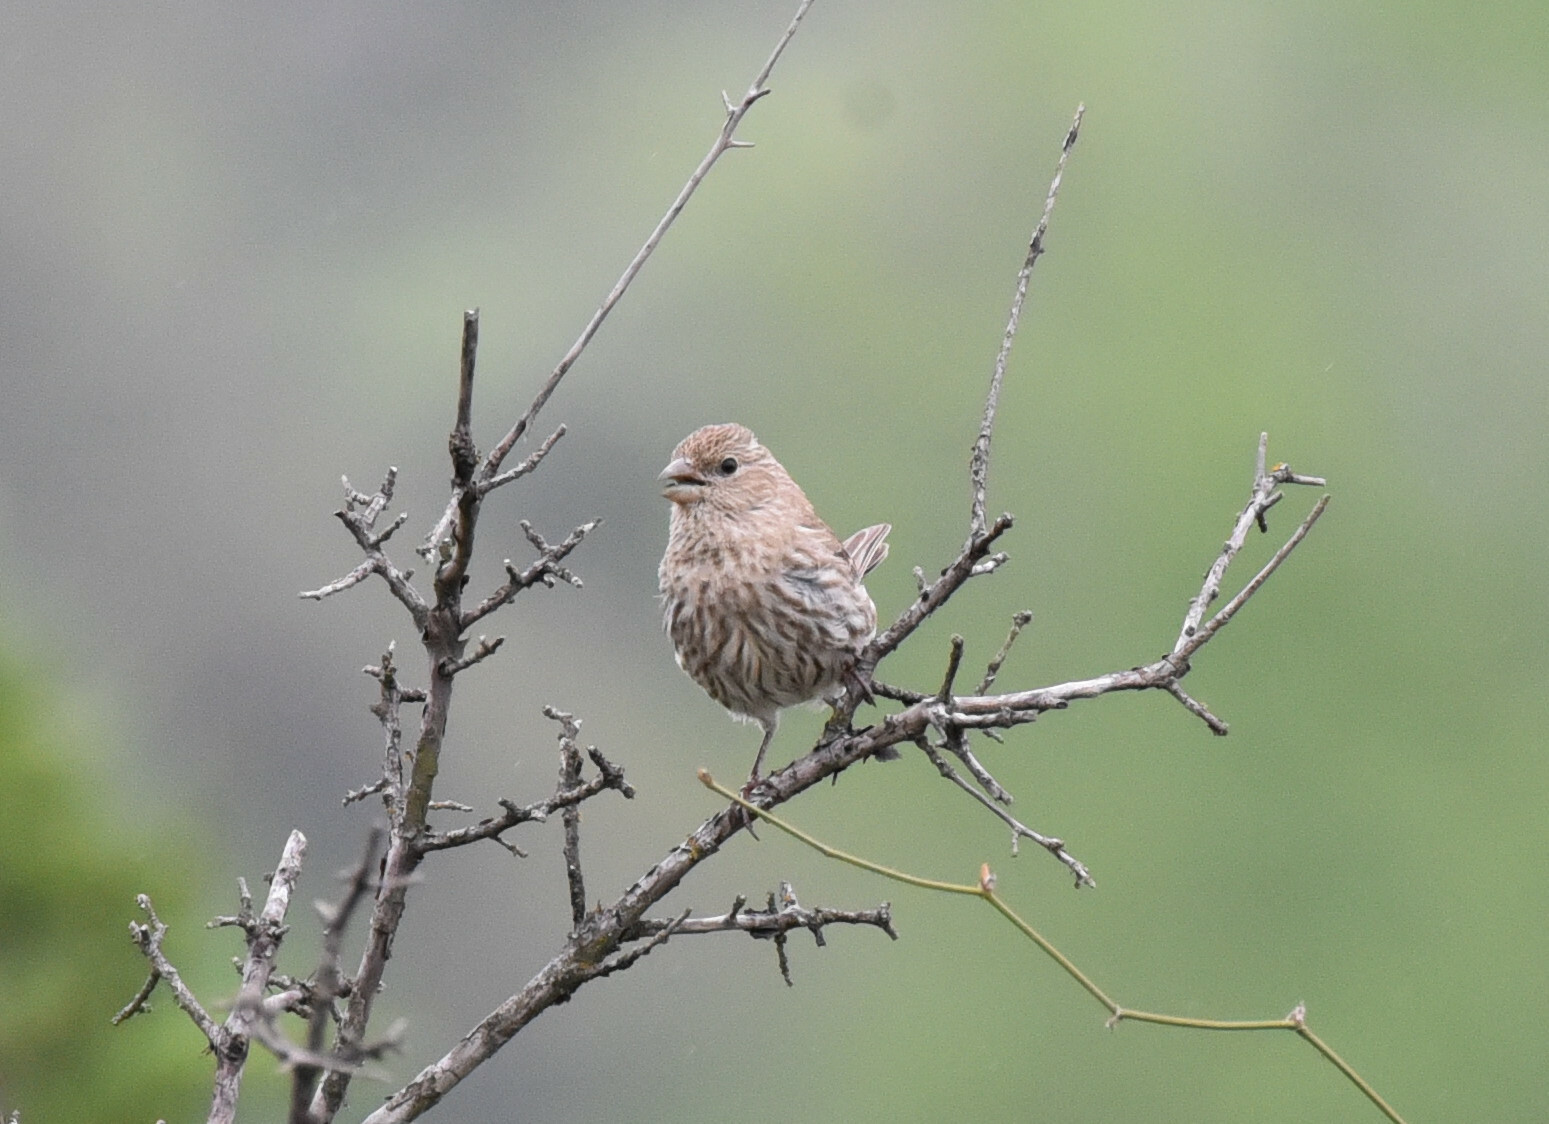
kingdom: Animalia
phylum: Chordata
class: Aves
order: Passeriformes
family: Fringillidae
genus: Haemorhous
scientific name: Haemorhous mexicanus
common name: House finch
